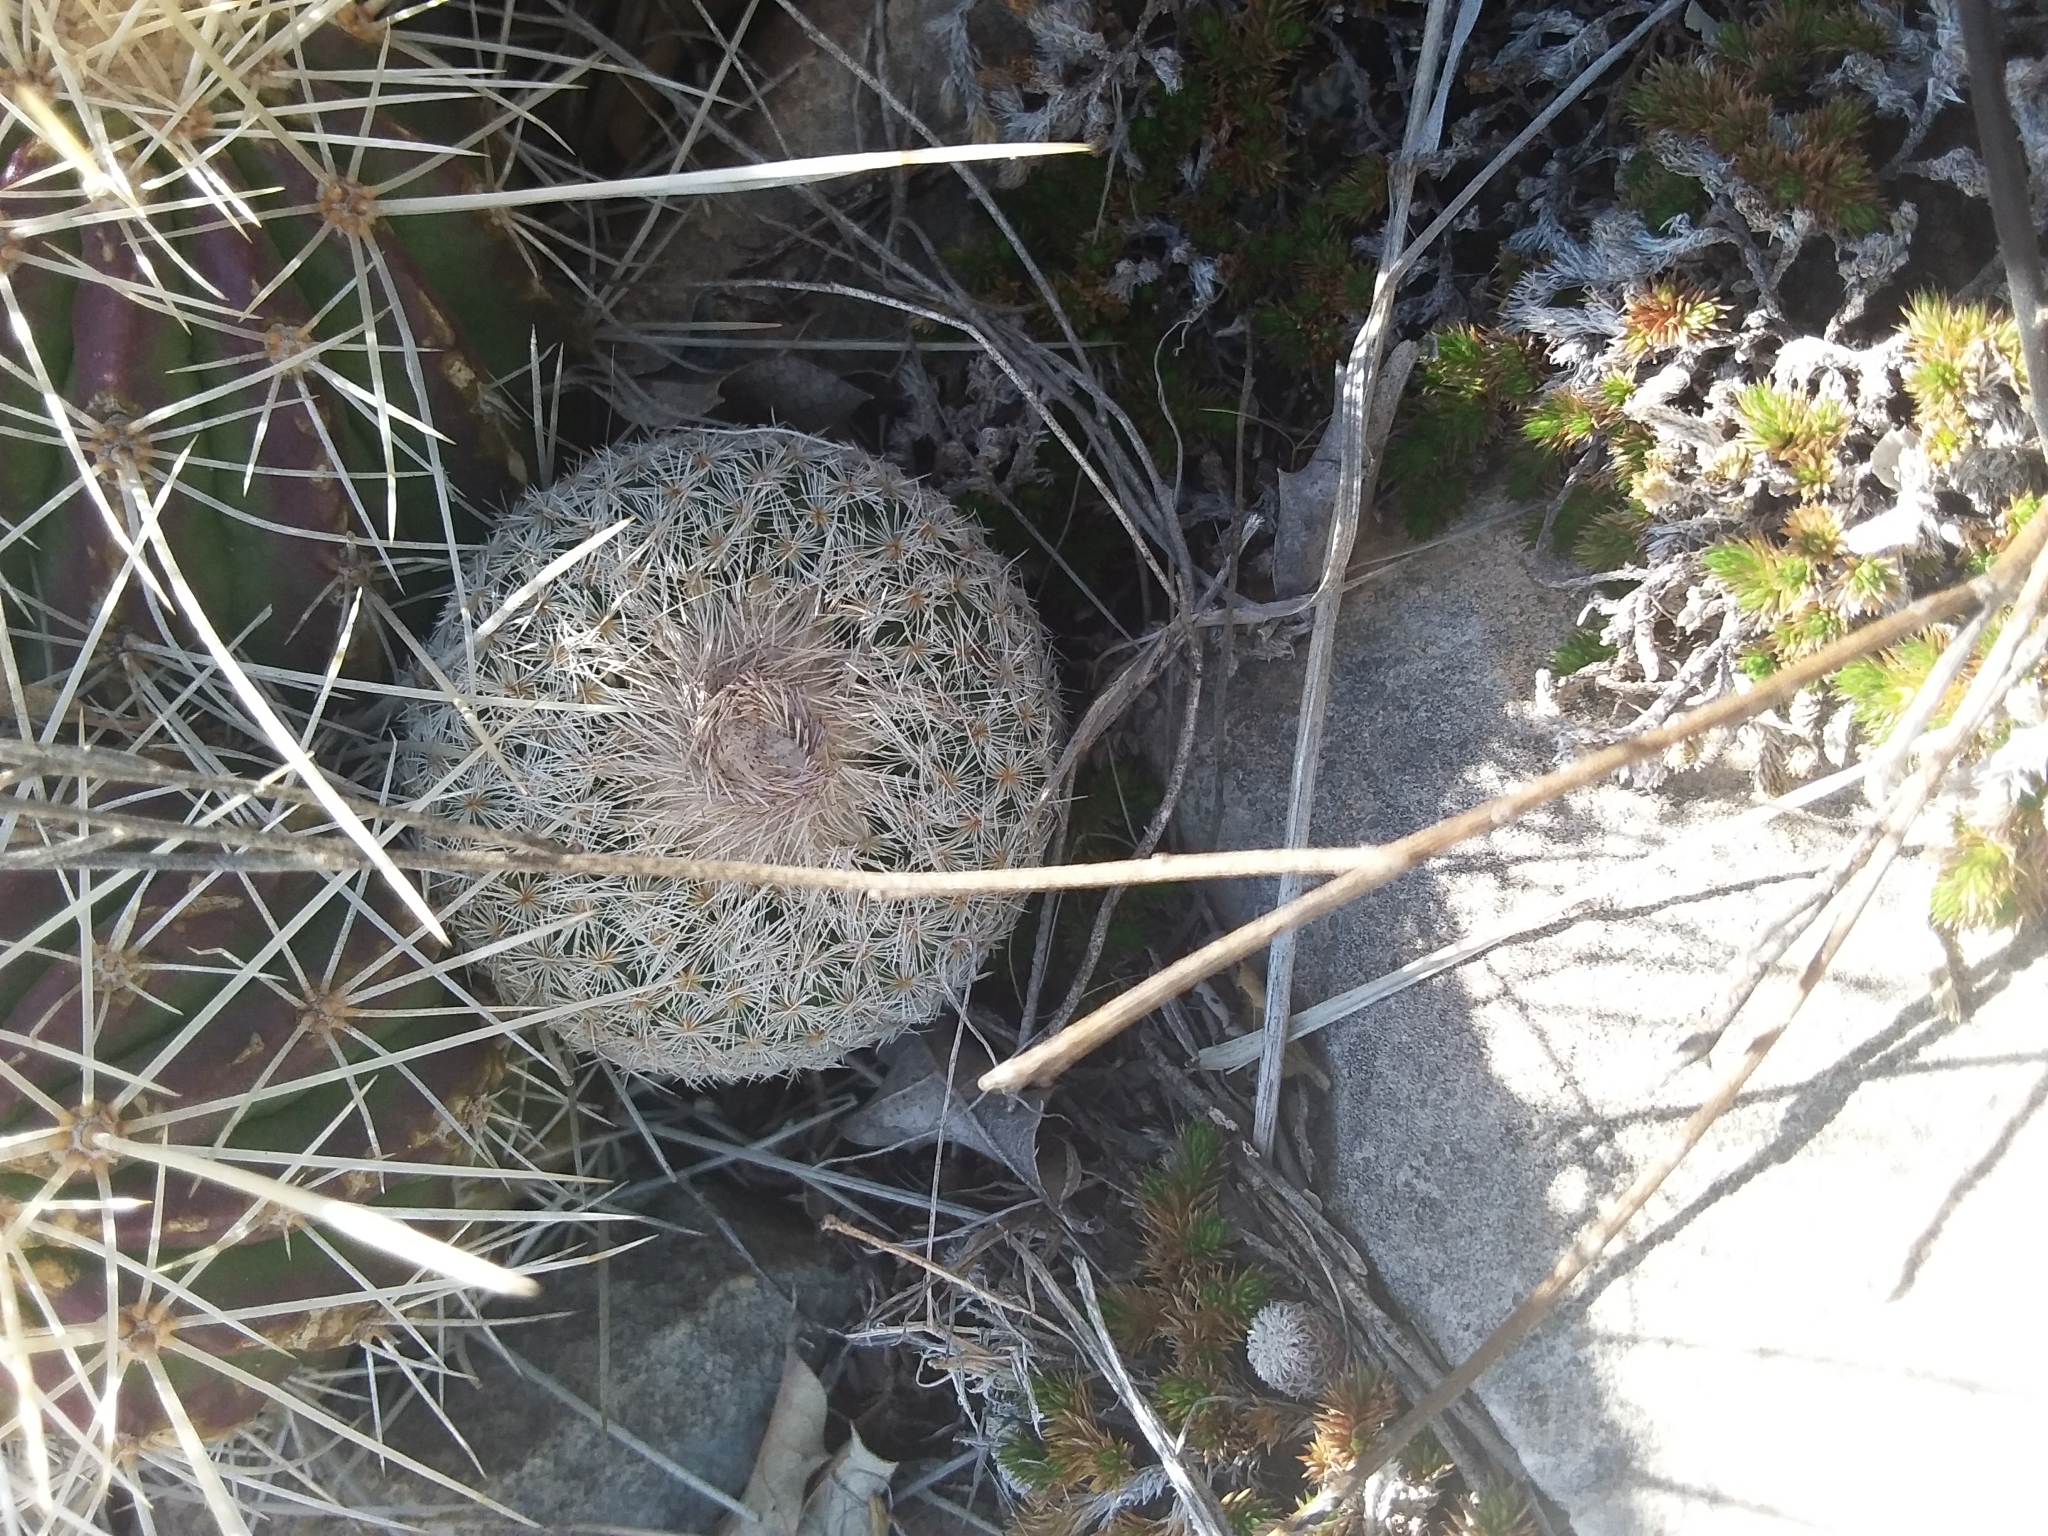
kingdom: Plantae
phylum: Tracheophyta
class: Magnoliopsida
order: Caryophyllales
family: Cactaceae
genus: Epithelantha
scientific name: Epithelantha micromeris
